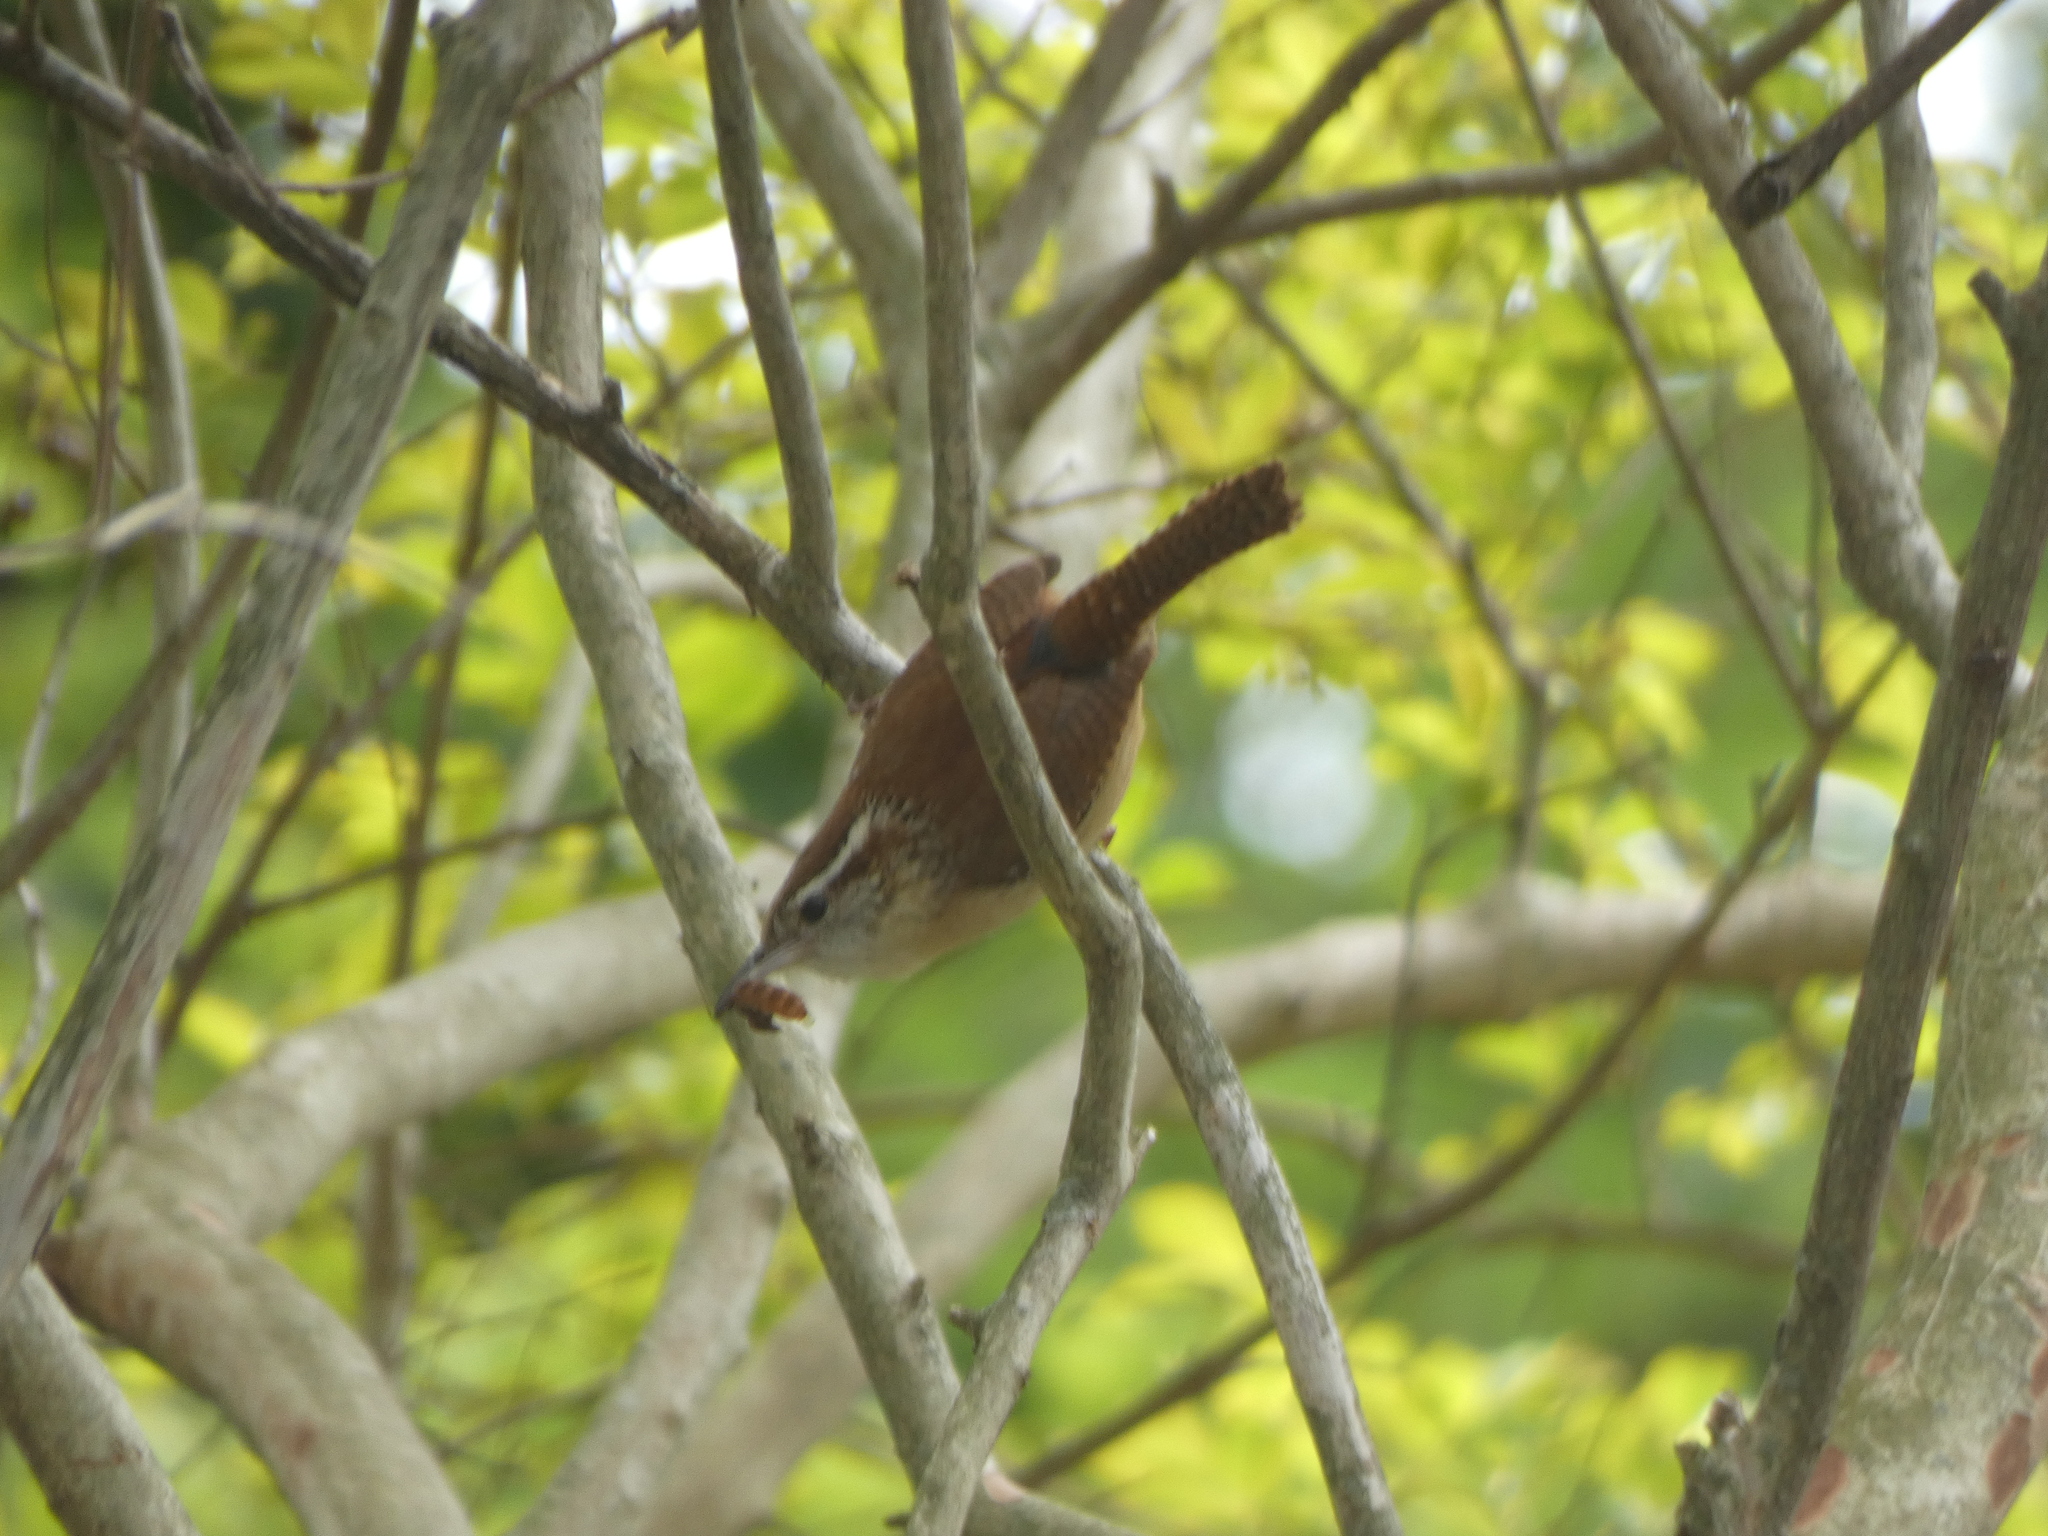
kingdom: Animalia
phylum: Chordata
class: Aves
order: Passeriformes
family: Troglodytidae
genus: Thryothorus
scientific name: Thryothorus ludovicianus
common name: Carolina wren
